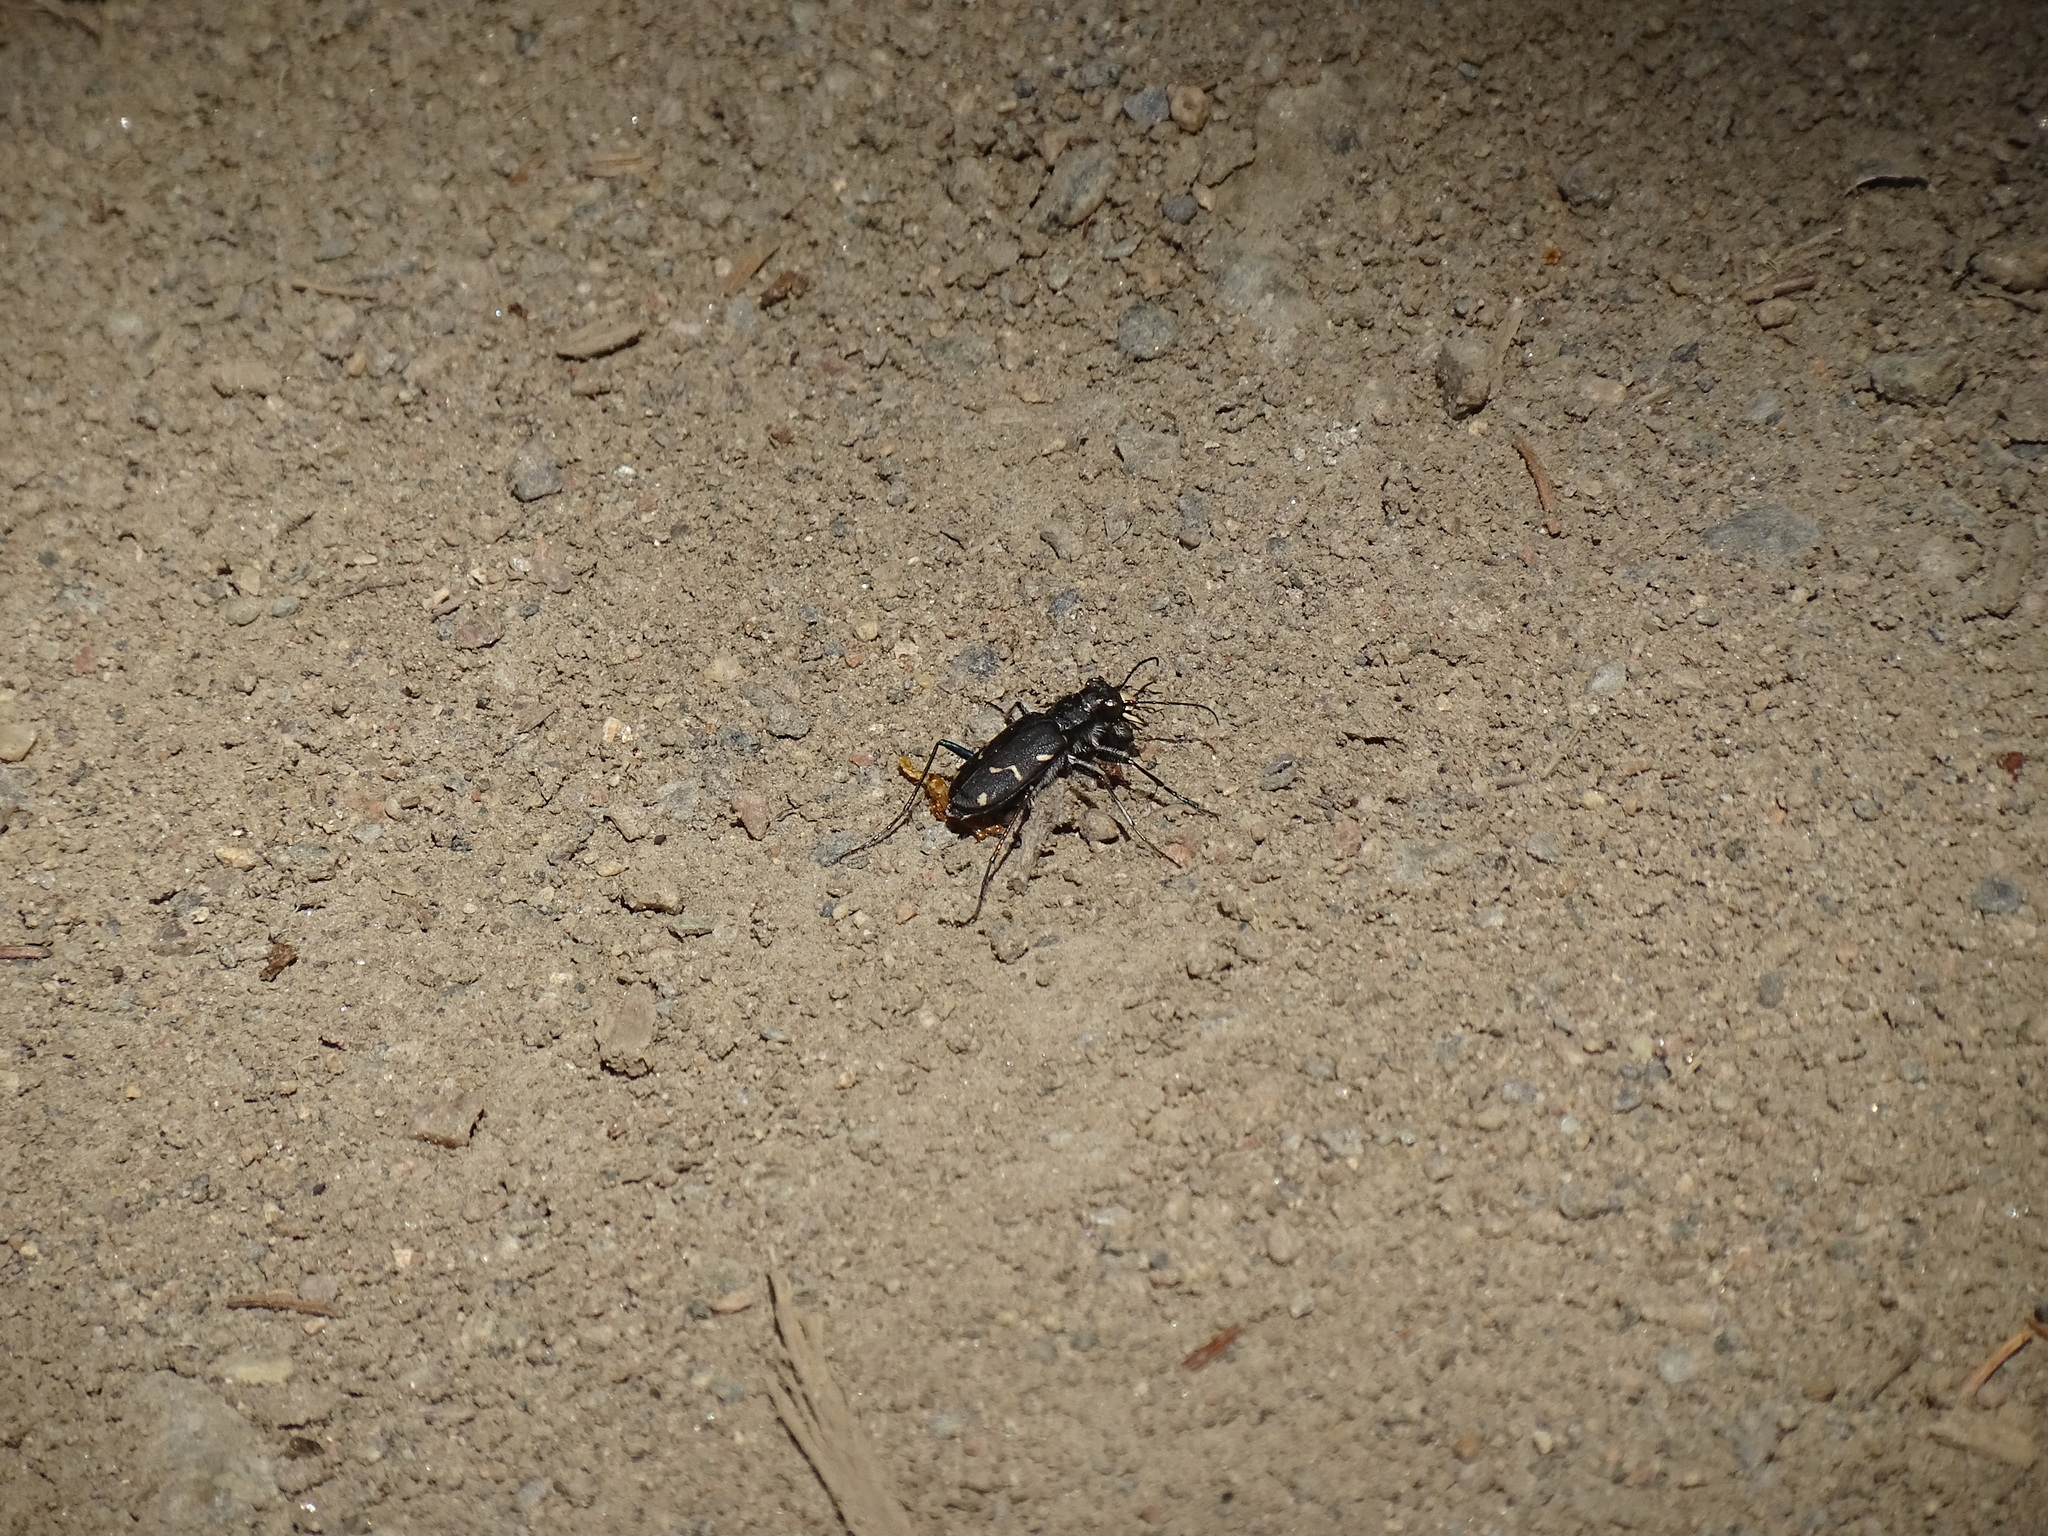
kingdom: Animalia
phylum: Arthropoda
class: Insecta
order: Coleoptera
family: Carabidae
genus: Cicindela
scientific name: Cicindela longilabris
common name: Boreal long-lipped tiger beetle
